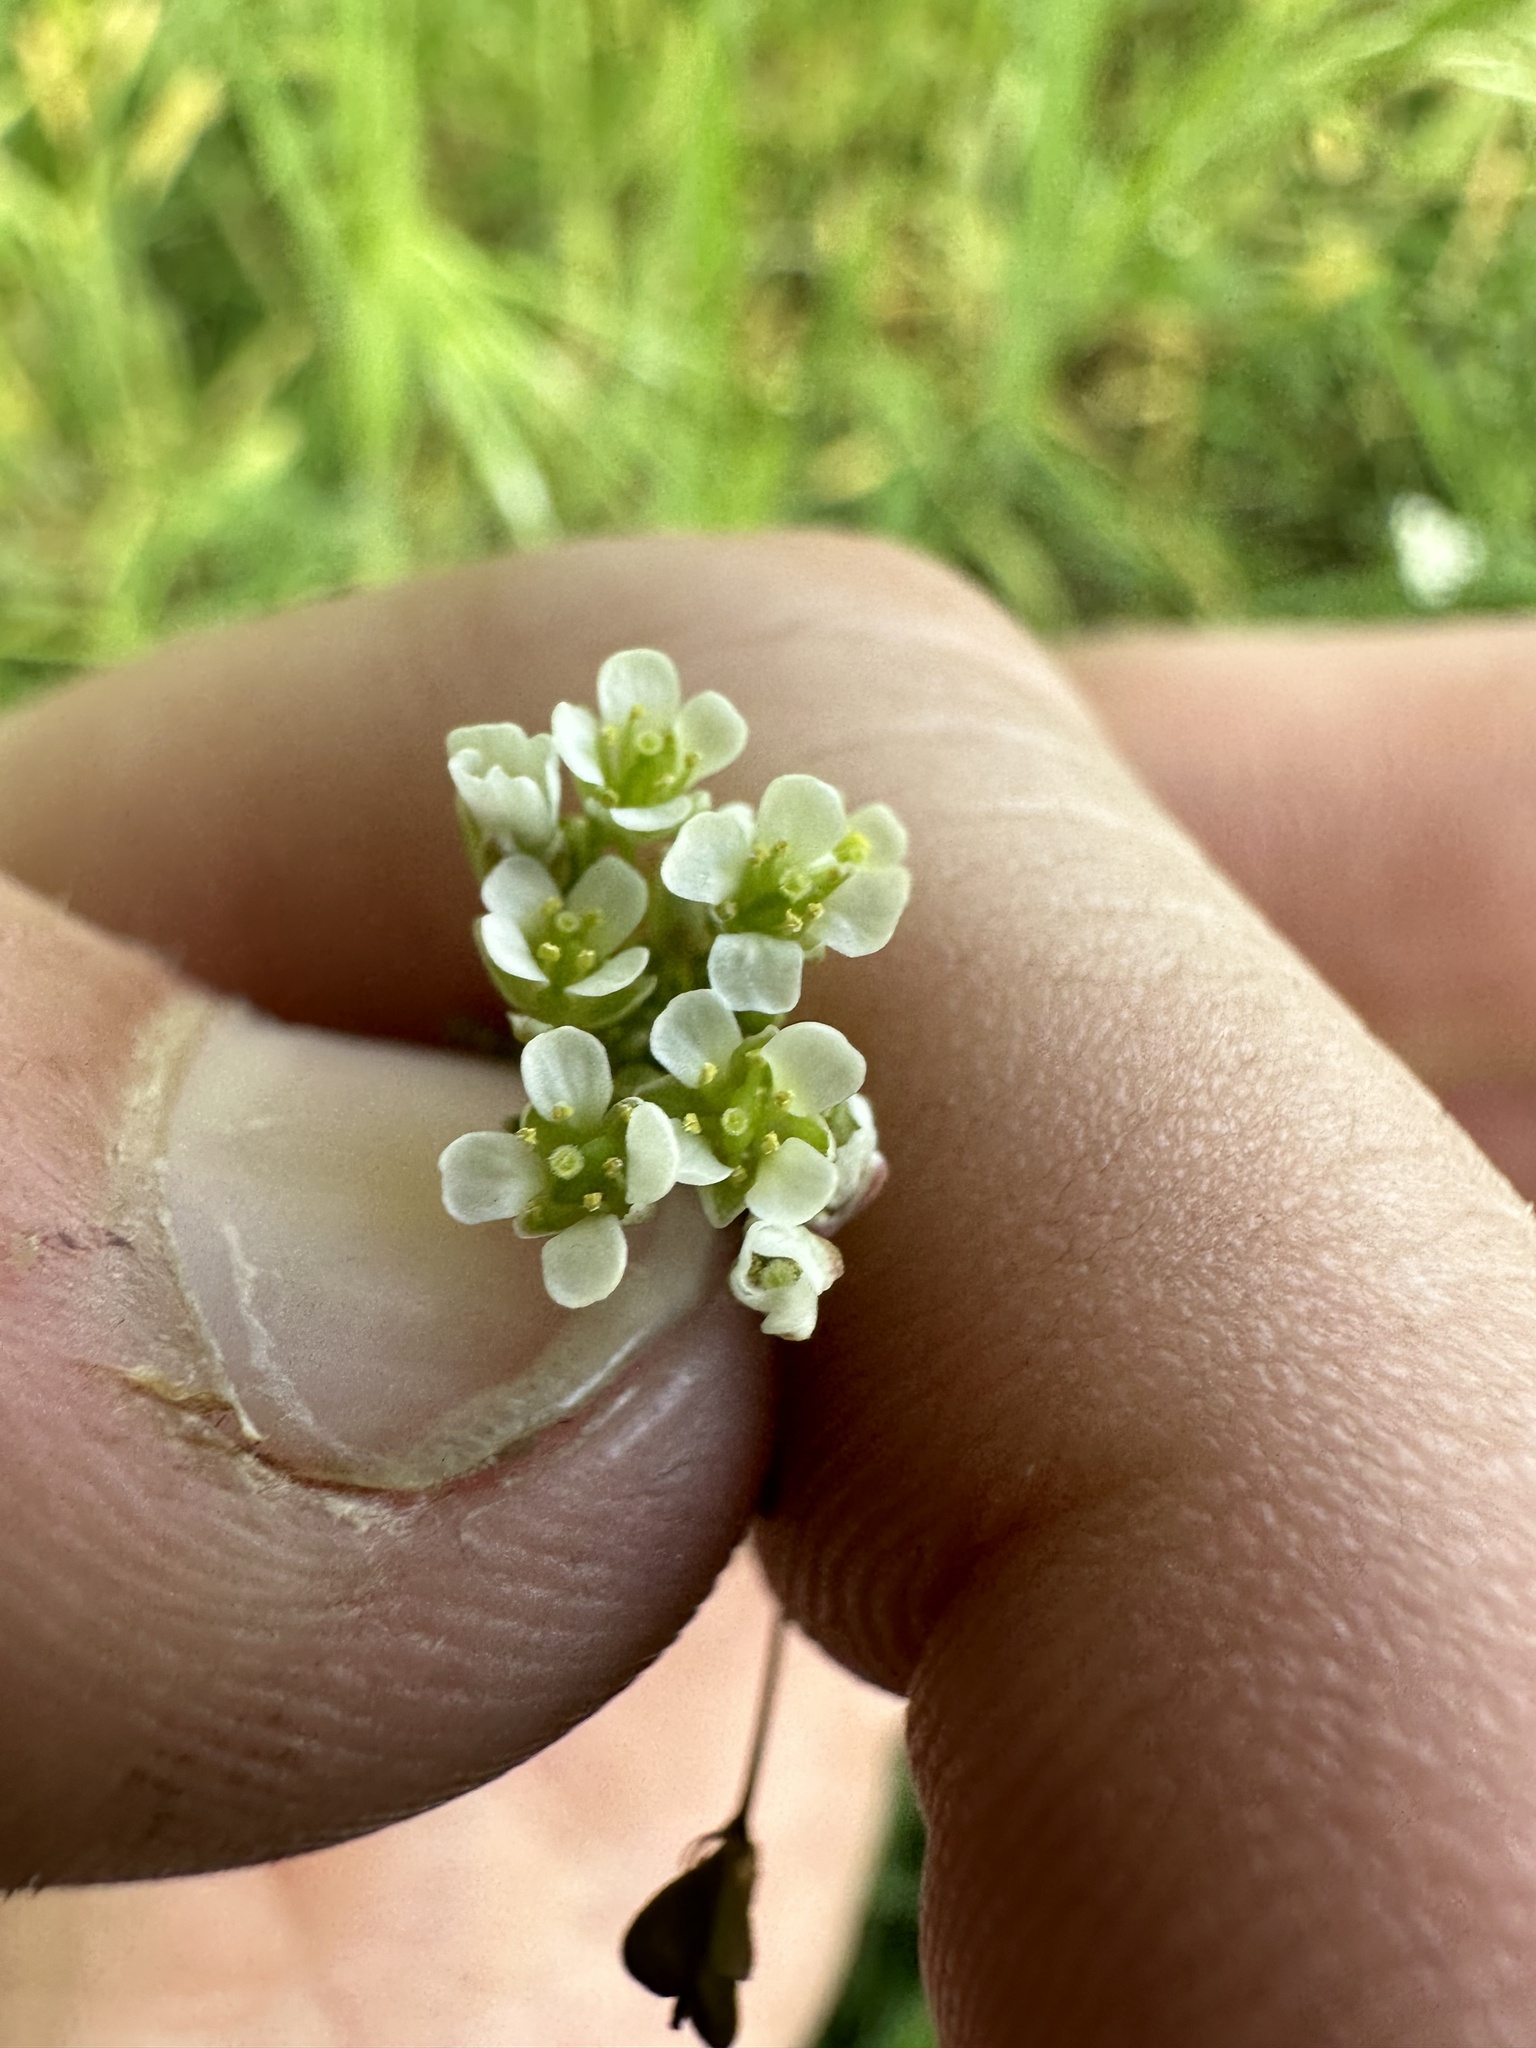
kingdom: Plantae
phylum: Tracheophyta
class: Magnoliopsida
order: Brassicales
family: Brassicaceae
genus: Capsella
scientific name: Capsella bursa-pastoris
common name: Shepherd's purse
